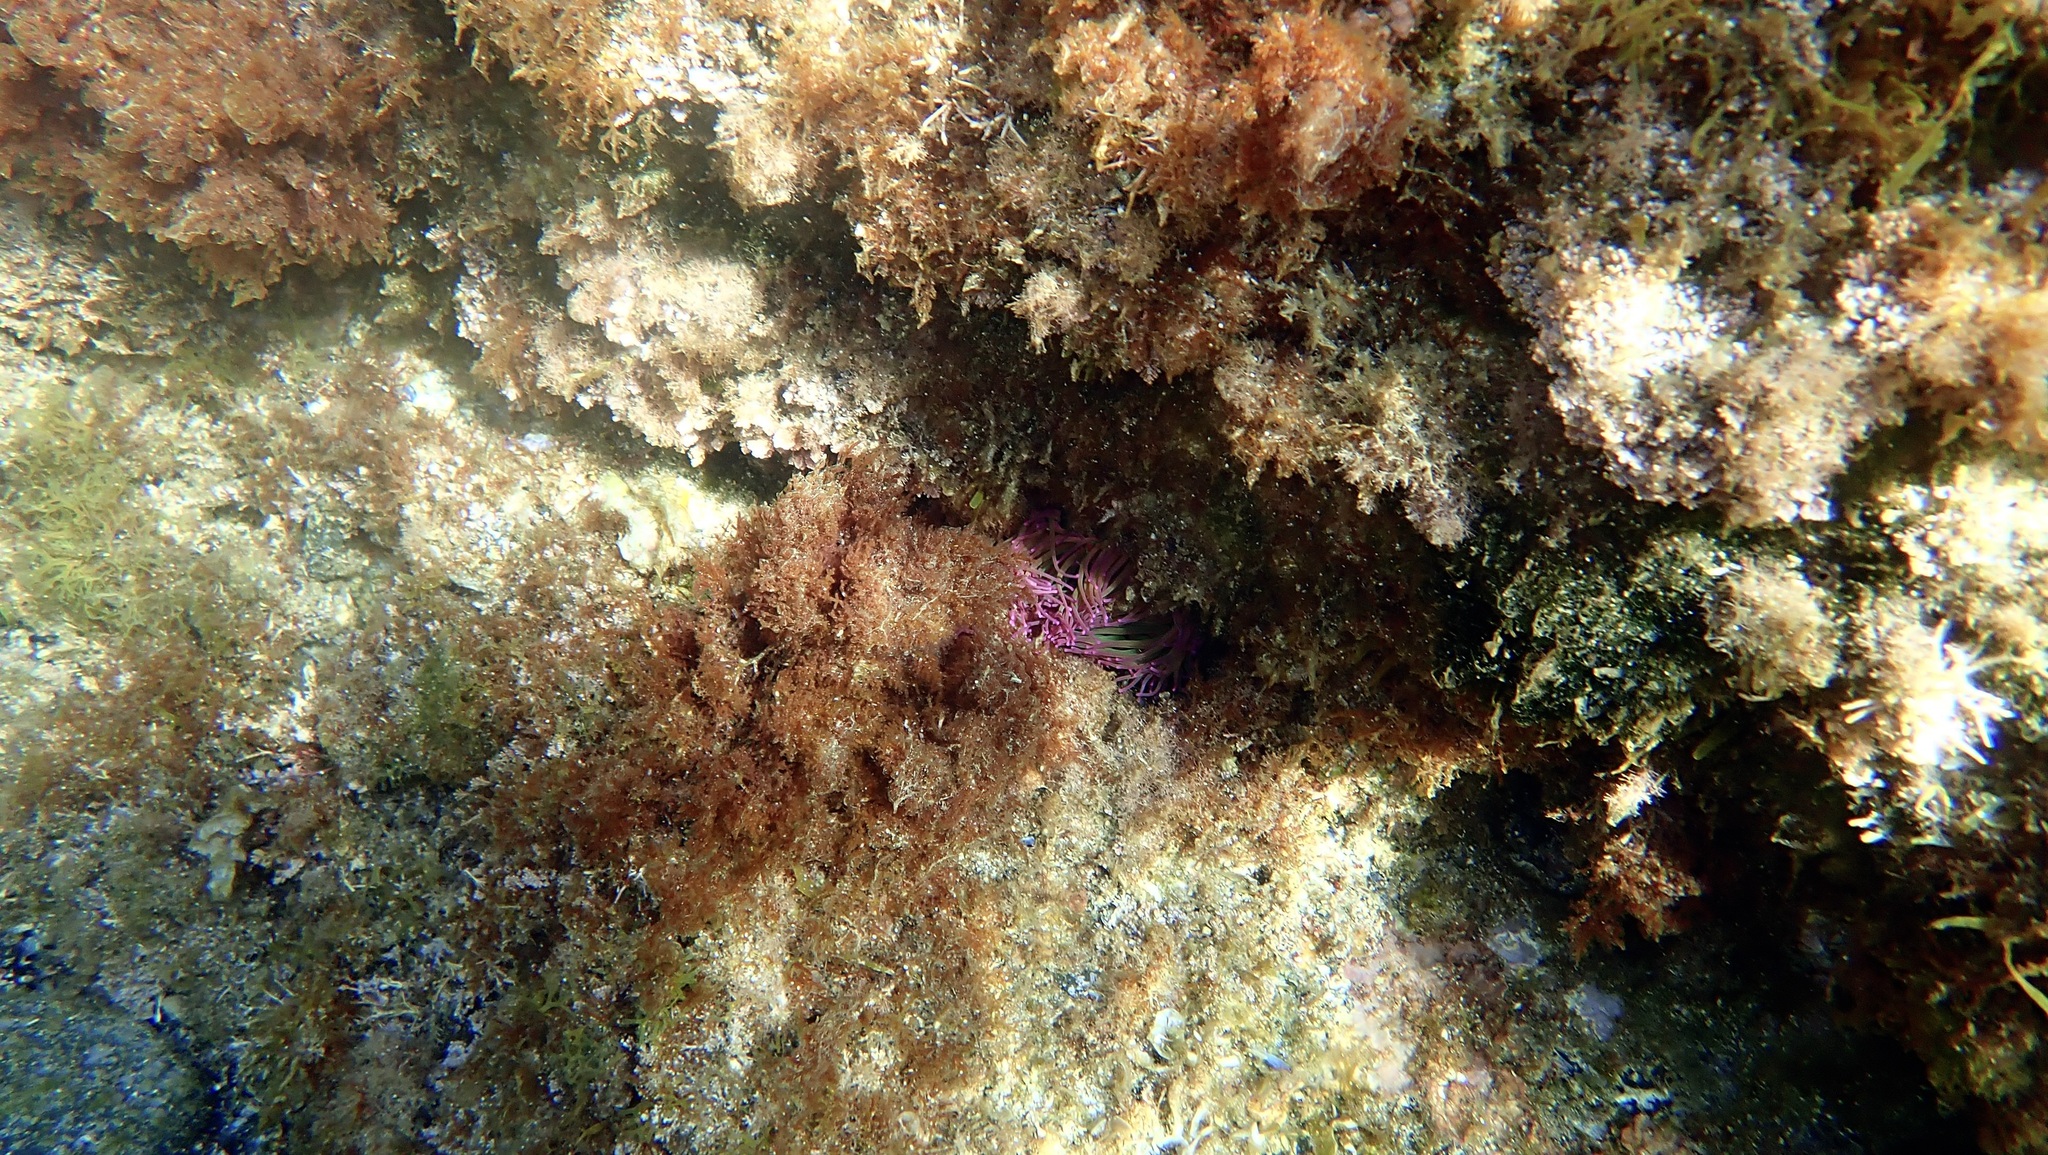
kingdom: Animalia
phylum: Echinodermata
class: Echinoidea
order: Camarodonta
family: Parechinidae
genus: Paracentrotus
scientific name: Paracentrotus lividus
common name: Purple sea urchin
